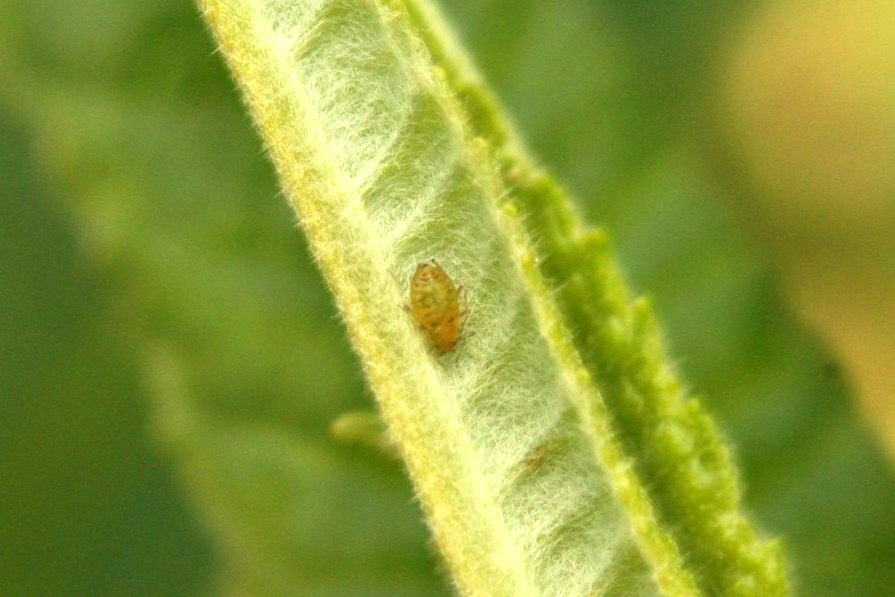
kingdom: Animalia
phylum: Arthropoda
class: Insecta
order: Hemiptera
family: Aphididae
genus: Myzus
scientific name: Myzus ornatus
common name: Ornate aphid
